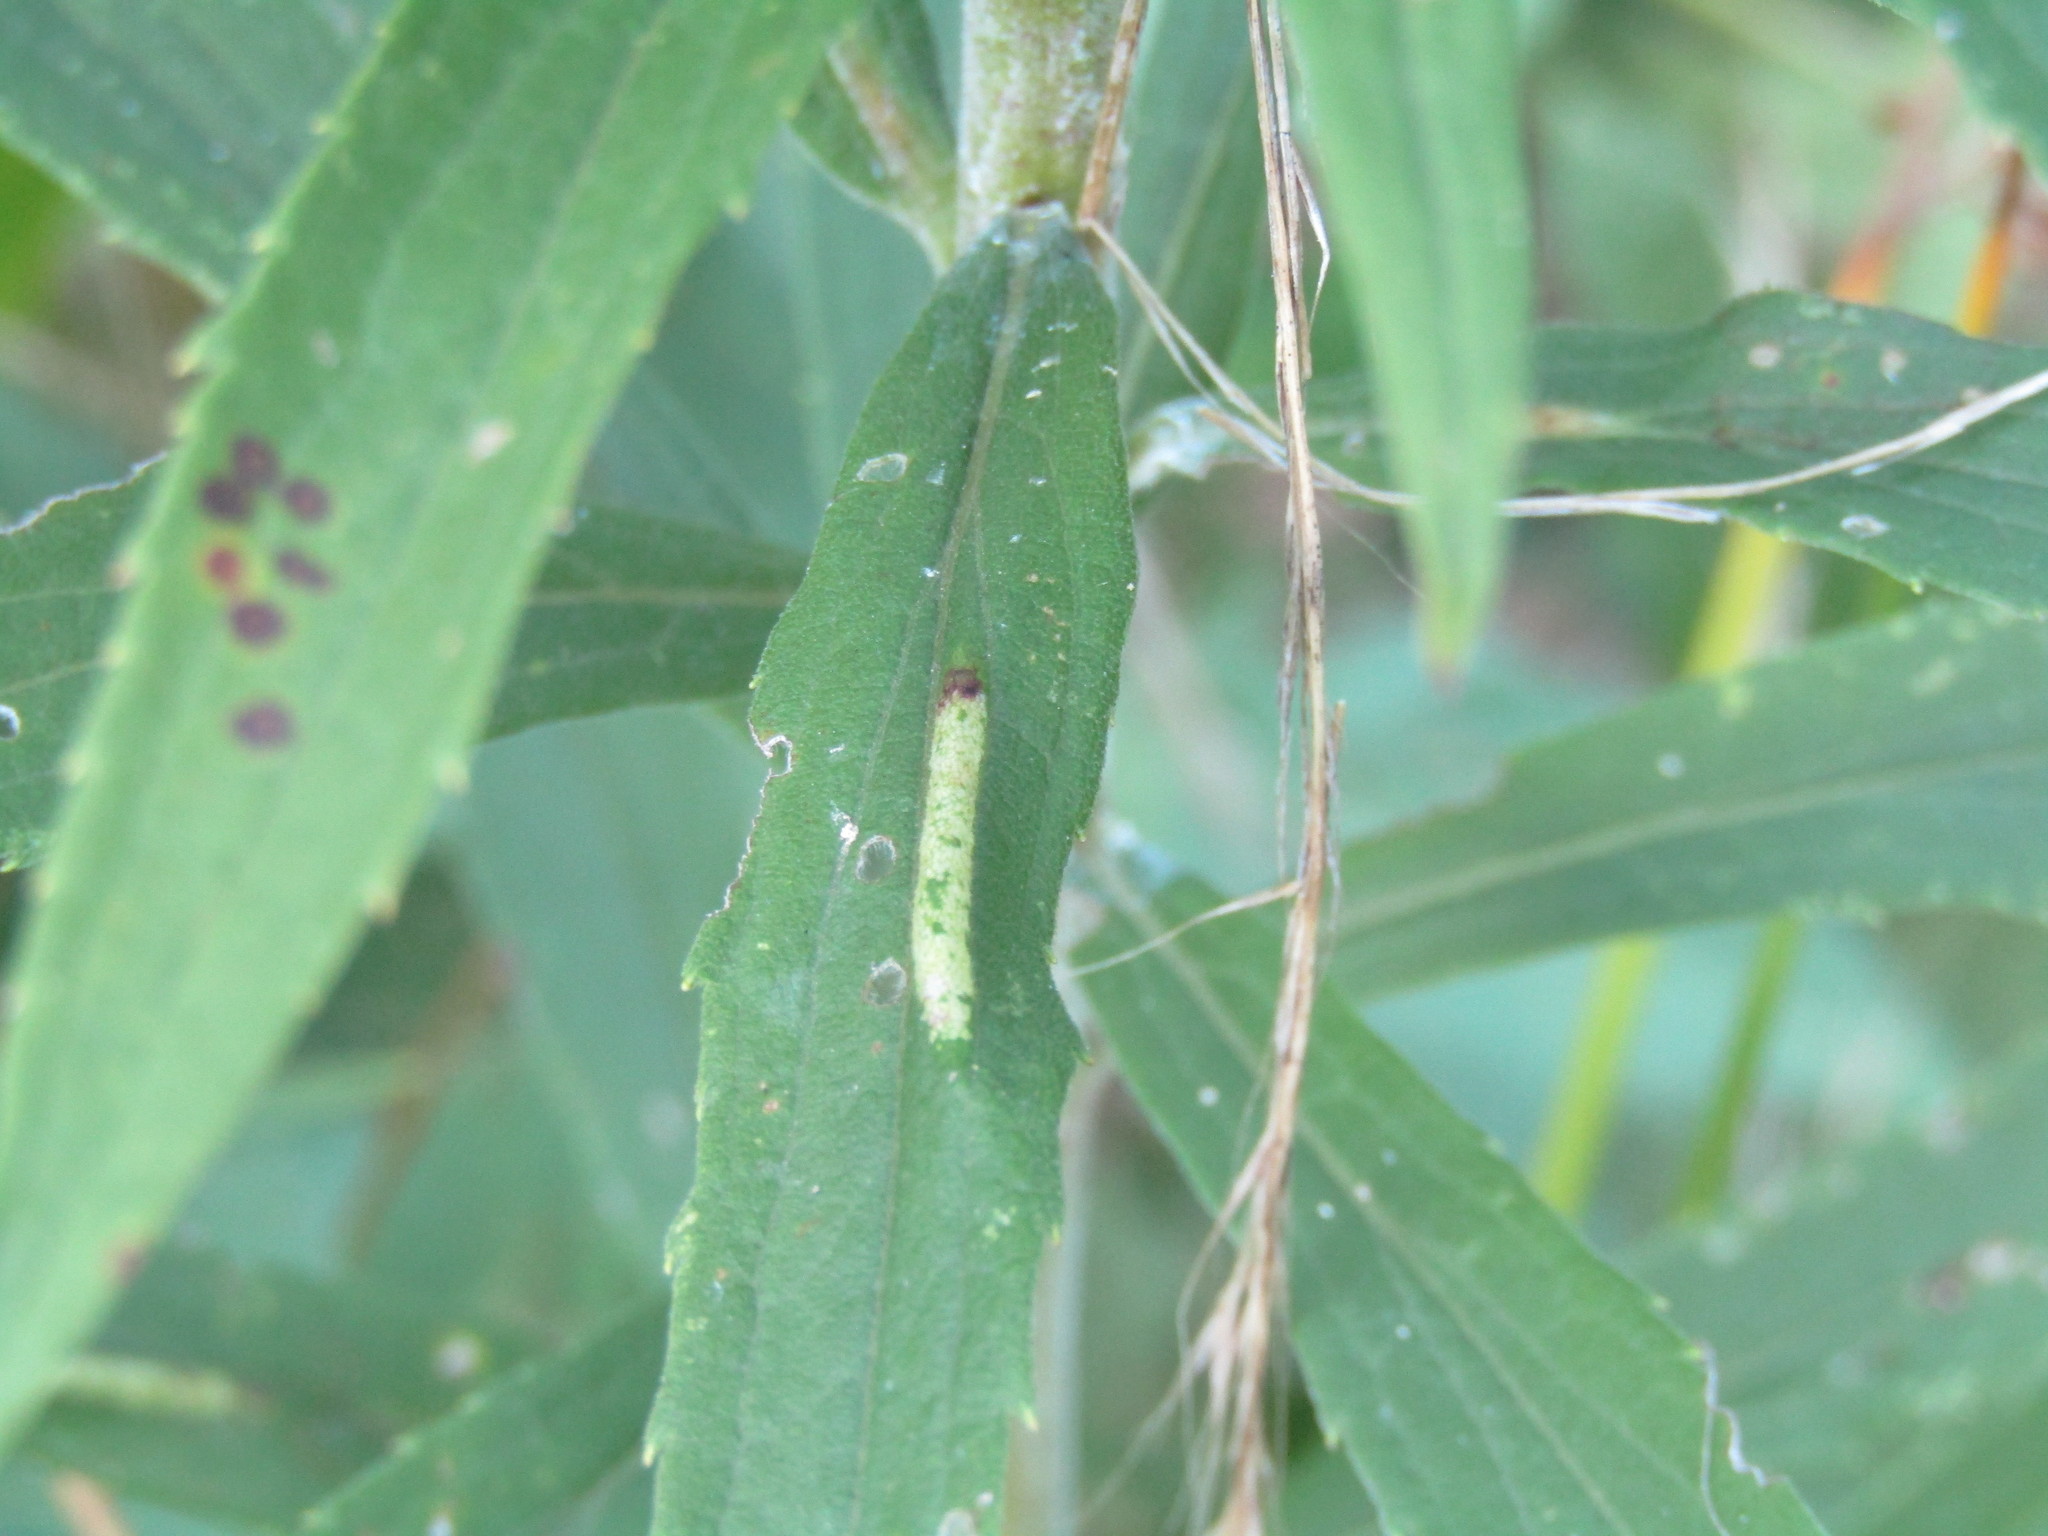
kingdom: Animalia
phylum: Arthropoda
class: Insecta
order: Lepidoptera
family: Gracillariidae
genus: Cremastobombycia
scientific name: Cremastobombycia solidaginis
